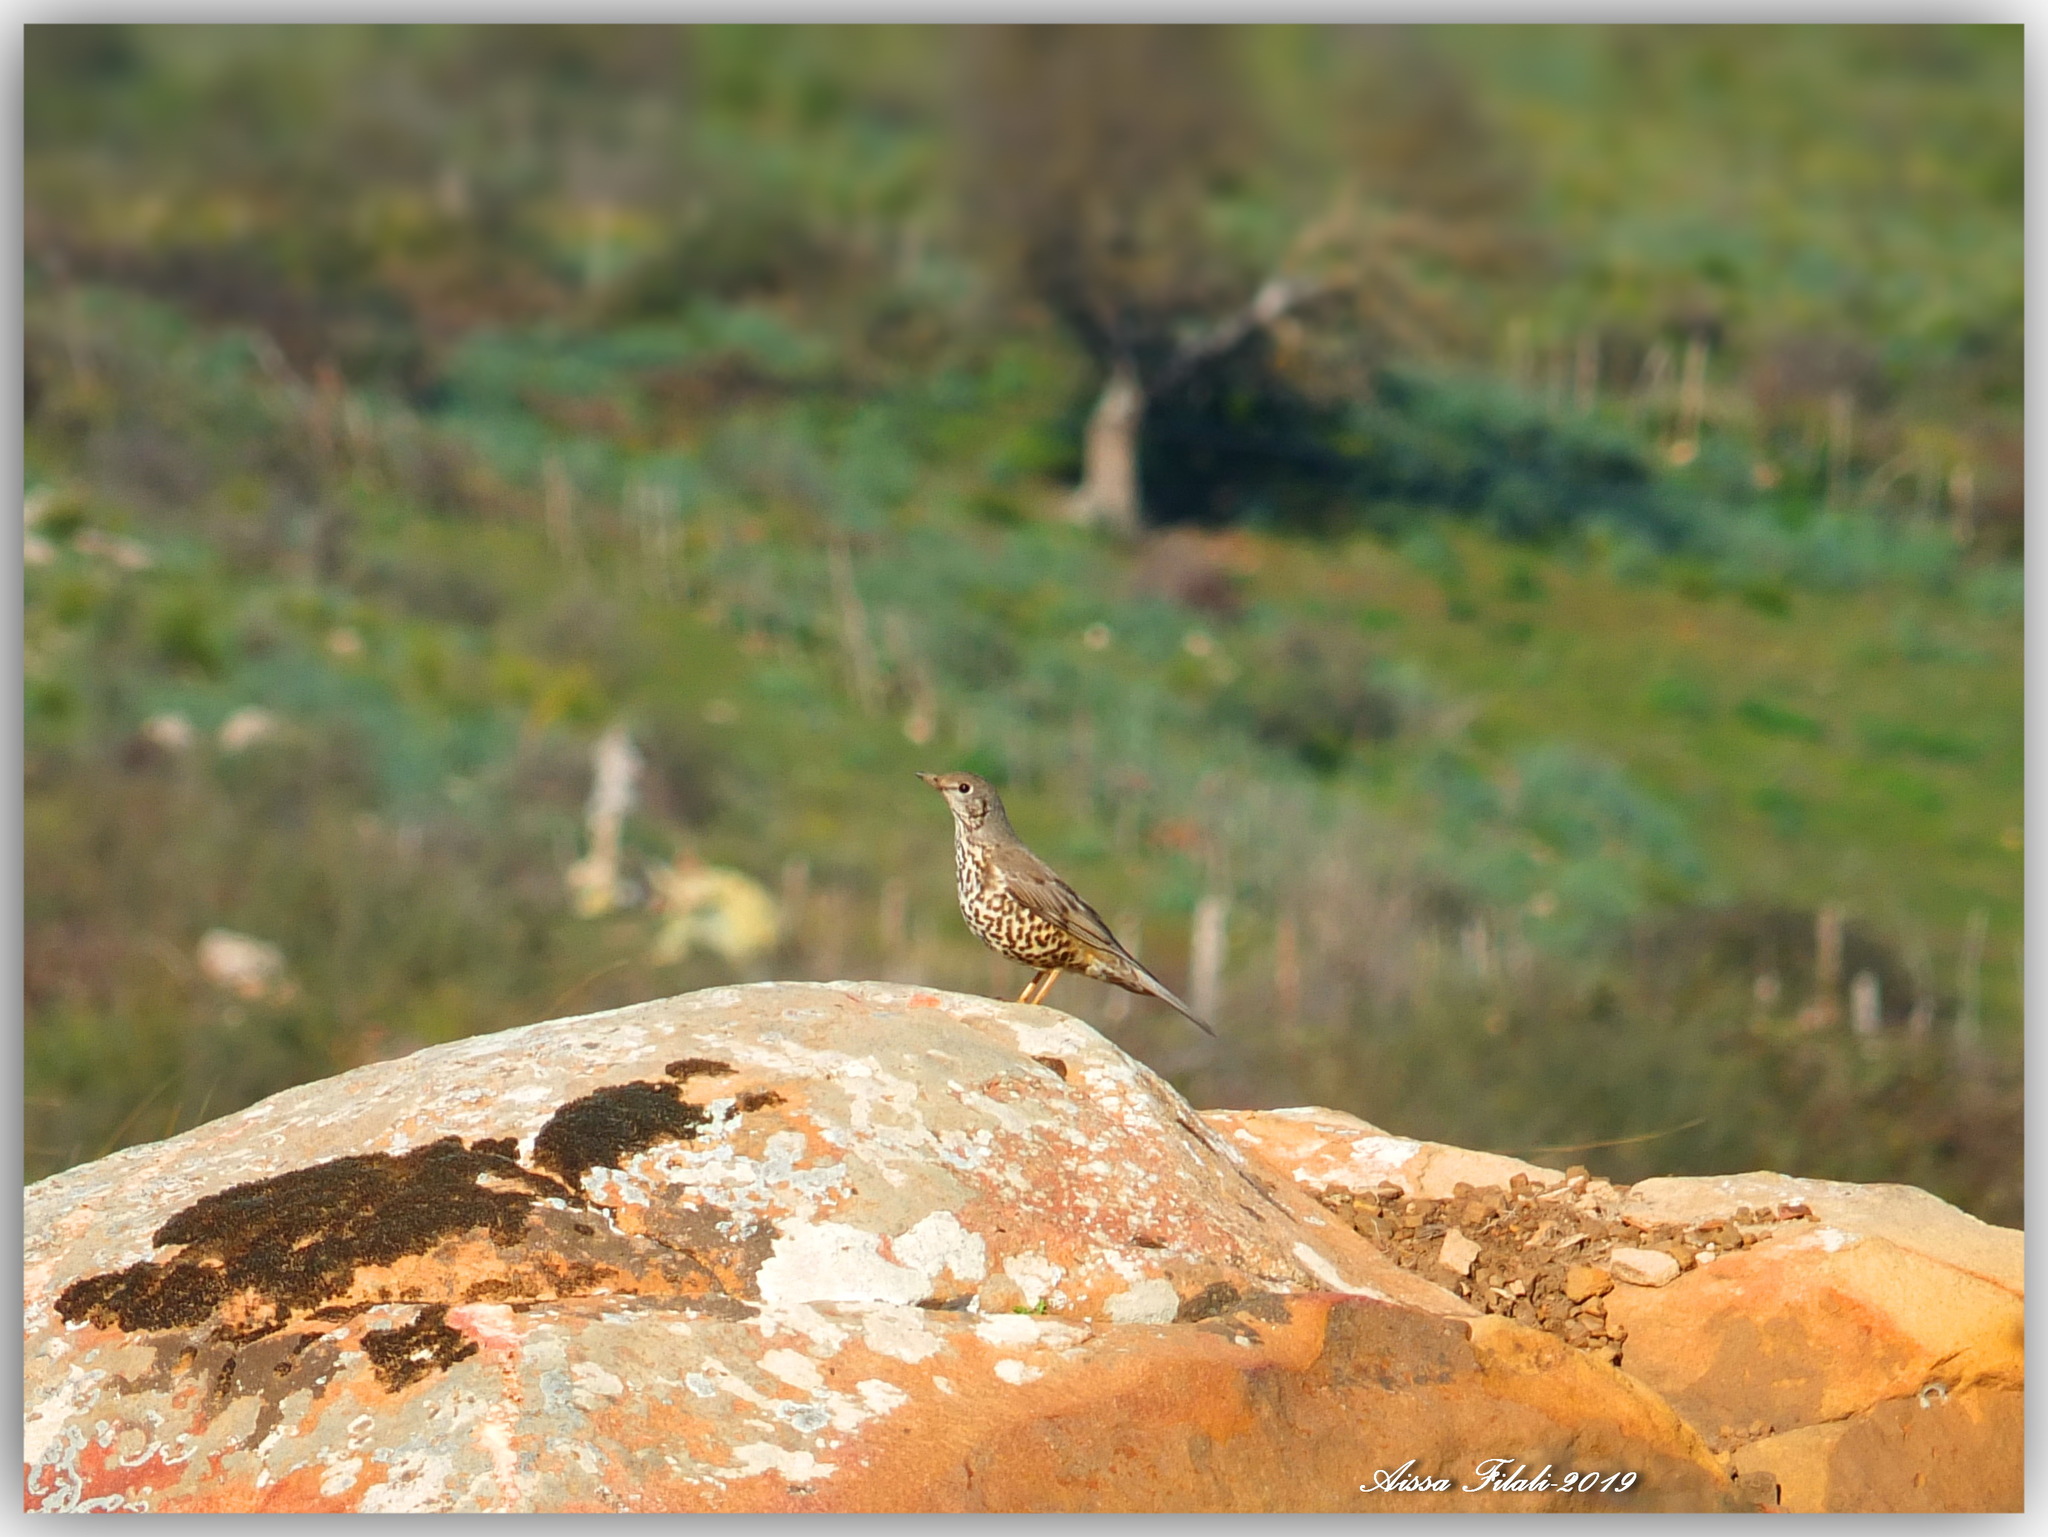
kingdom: Animalia
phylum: Chordata
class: Aves
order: Passeriformes
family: Turdidae
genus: Turdus
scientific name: Turdus viscivorus
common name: Mistle thrush
